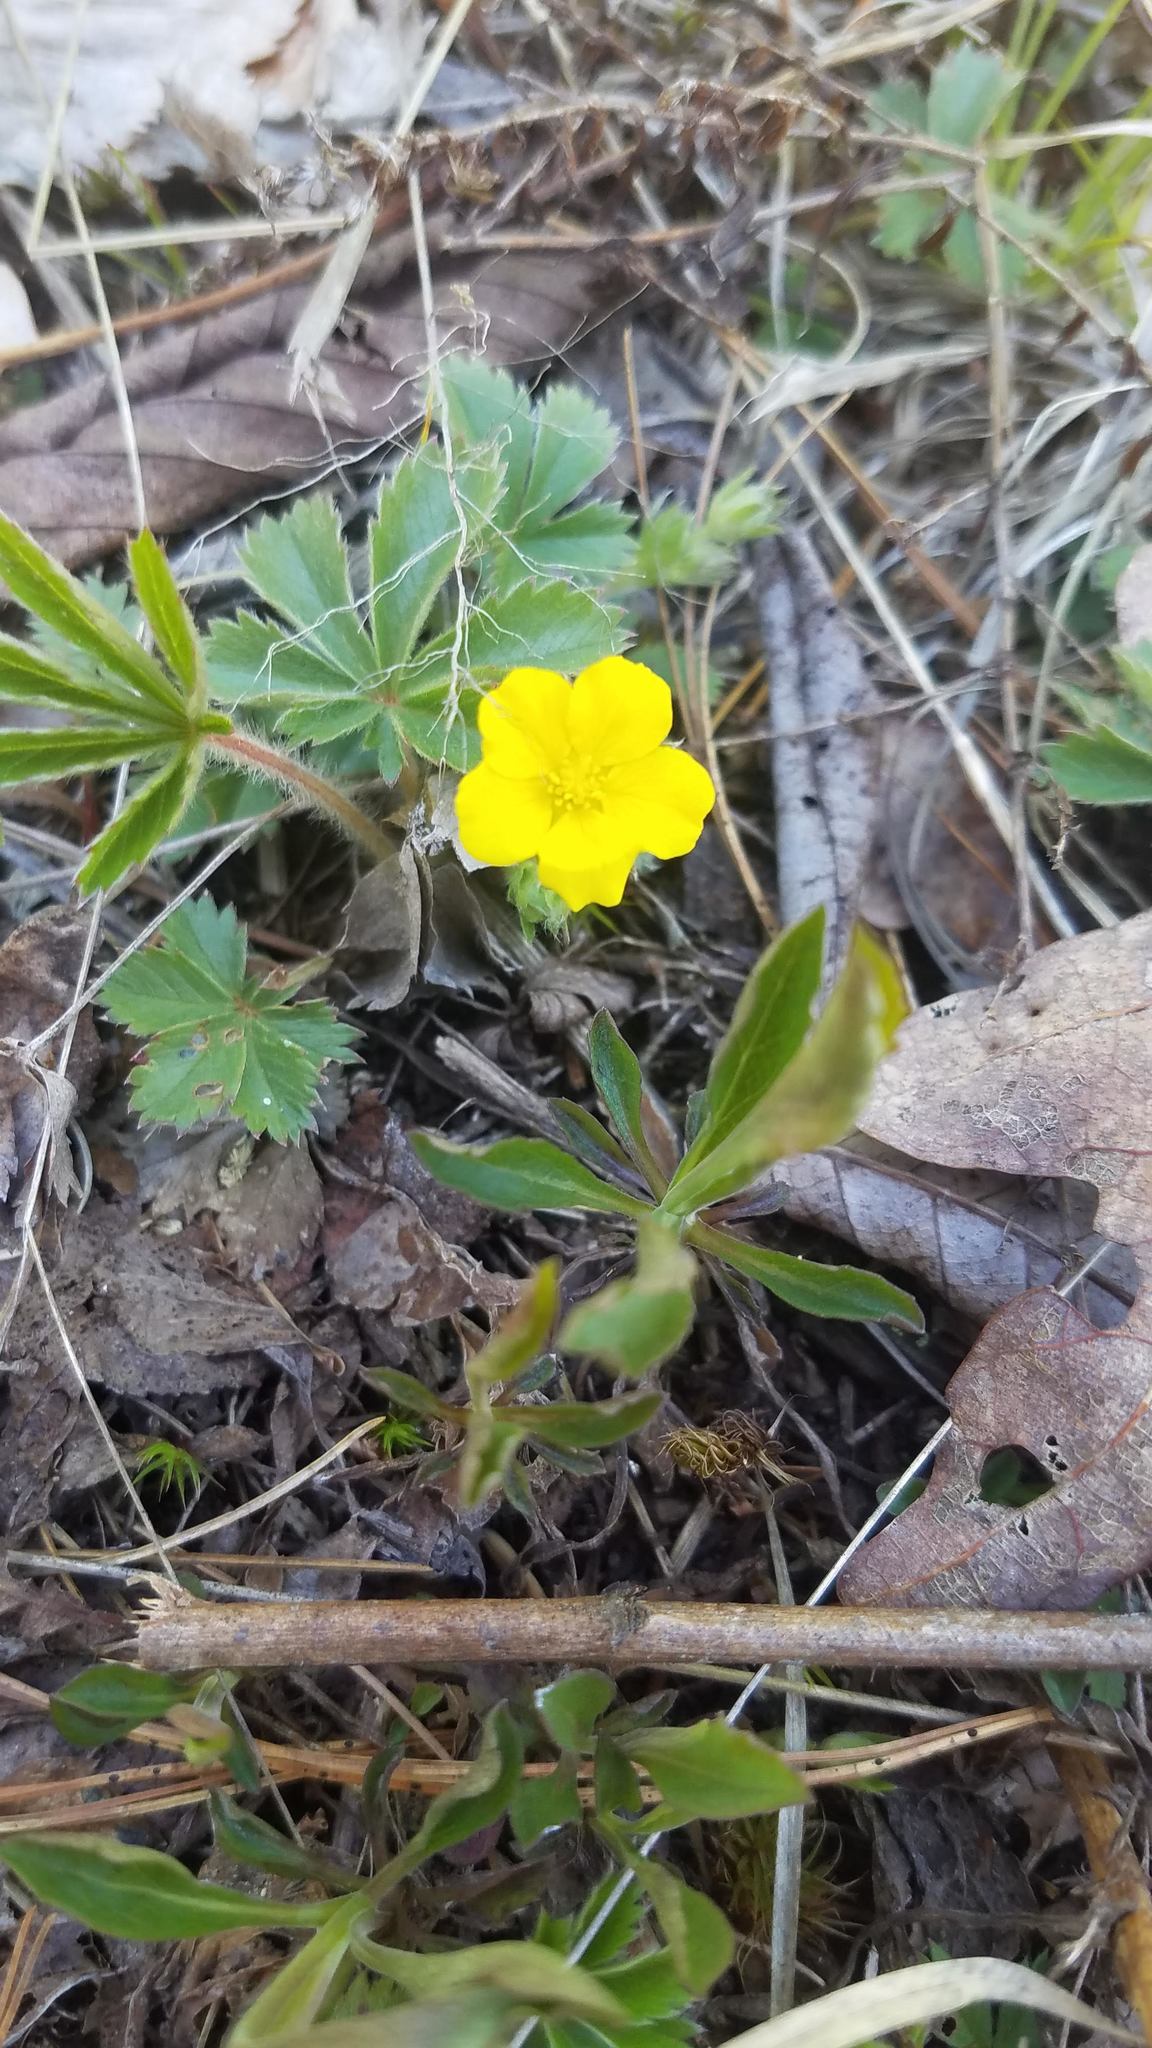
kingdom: Plantae
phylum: Tracheophyta
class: Magnoliopsida
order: Rosales
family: Rosaceae
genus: Potentilla
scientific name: Potentilla canadensis
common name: Canada cinquefoil
